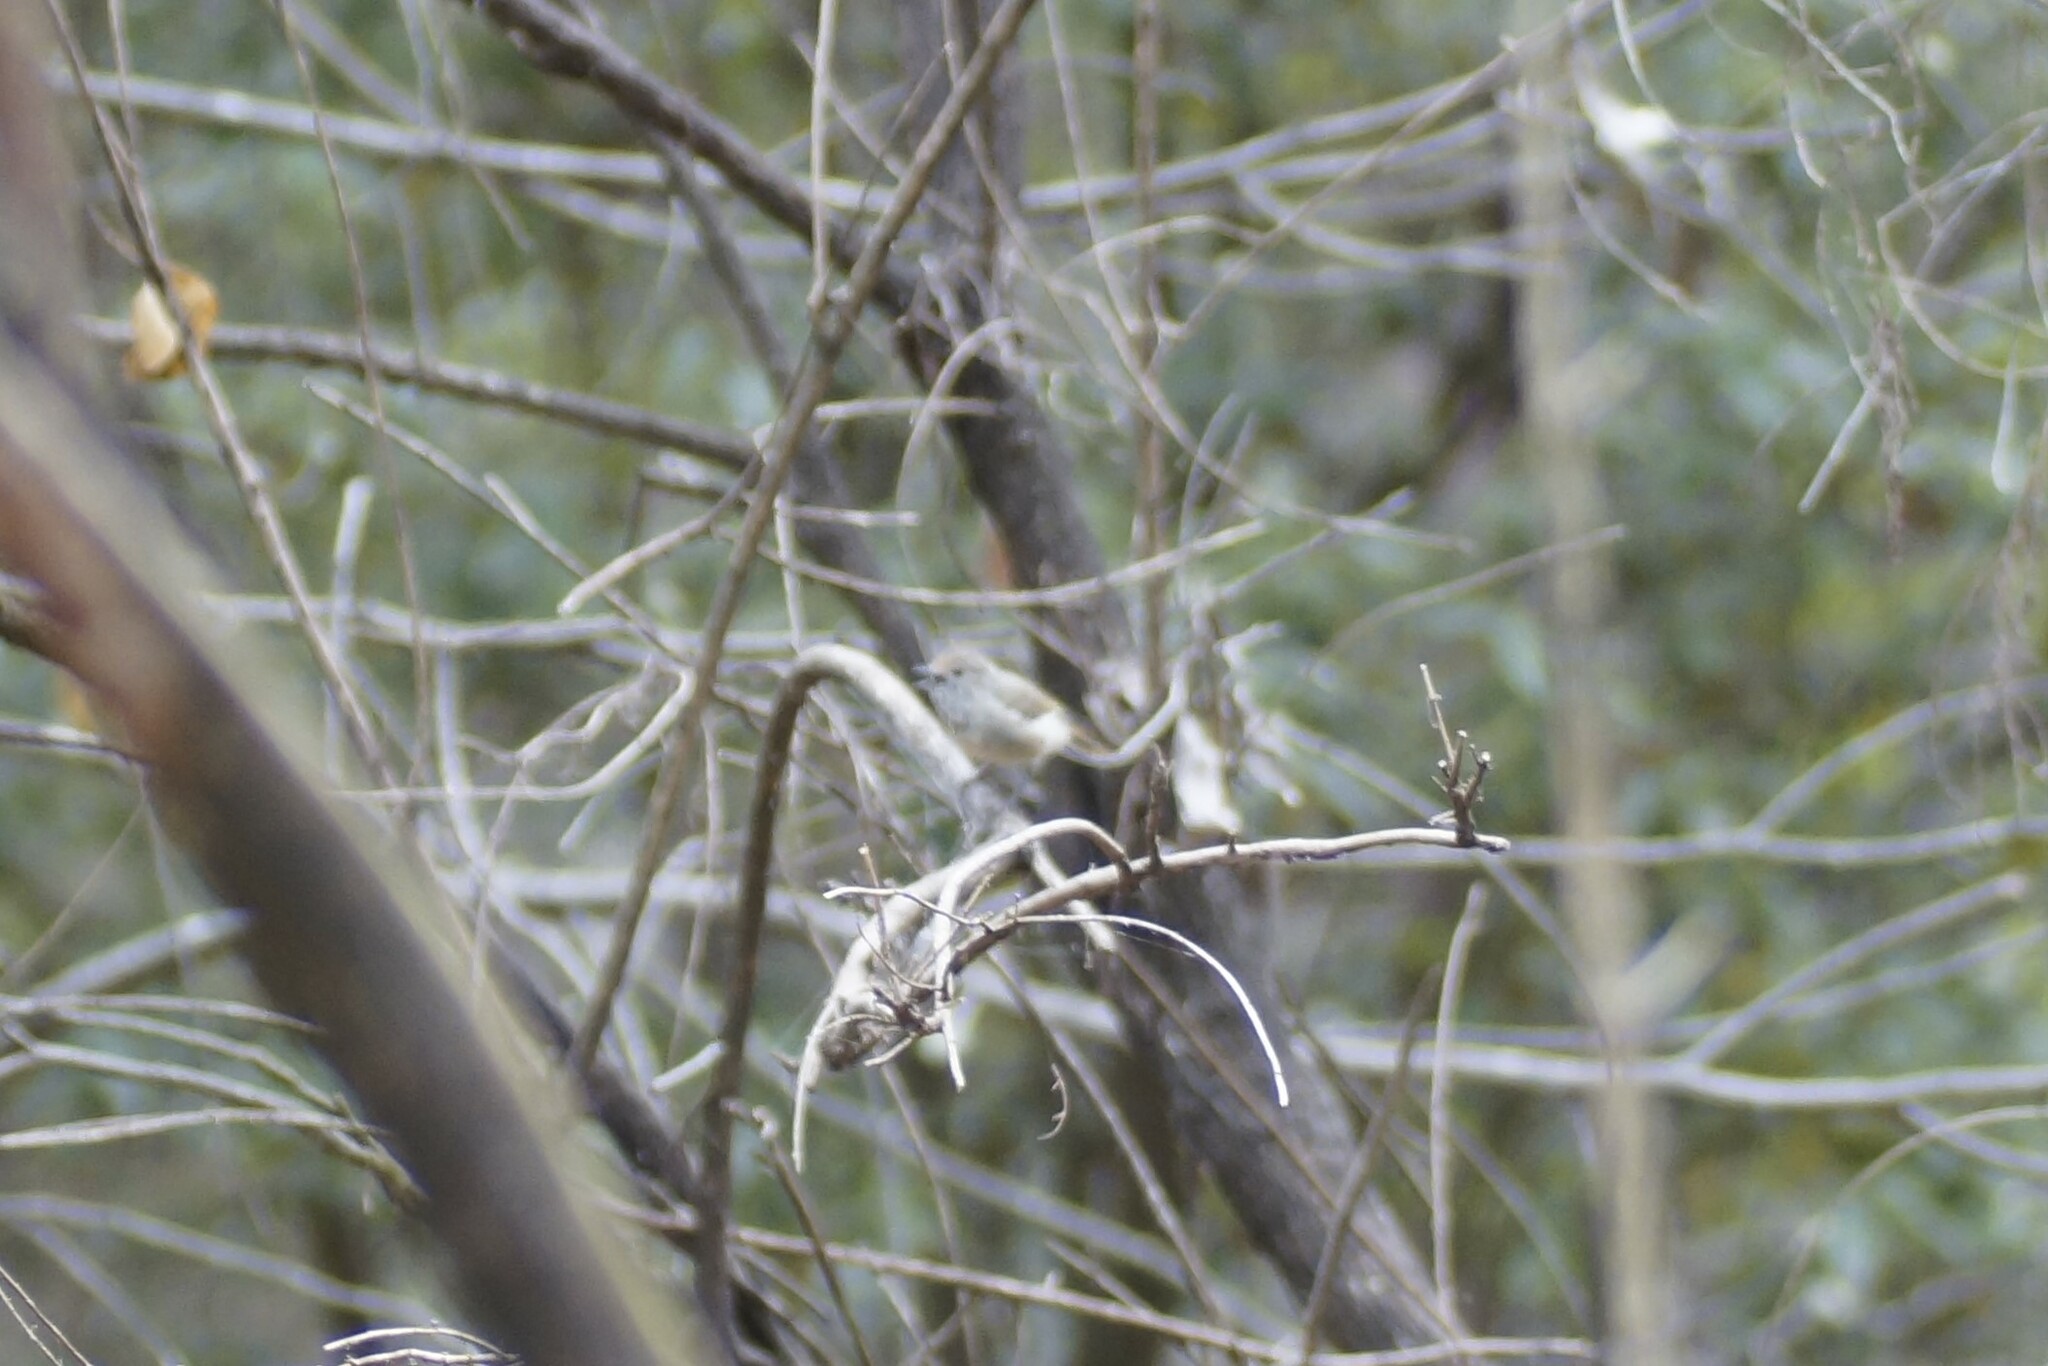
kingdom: Animalia
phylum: Chordata
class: Aves
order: Passeriformes
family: Acanthizidae
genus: Acanthiza
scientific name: Acanthiza pusilla
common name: Brown thornbill
